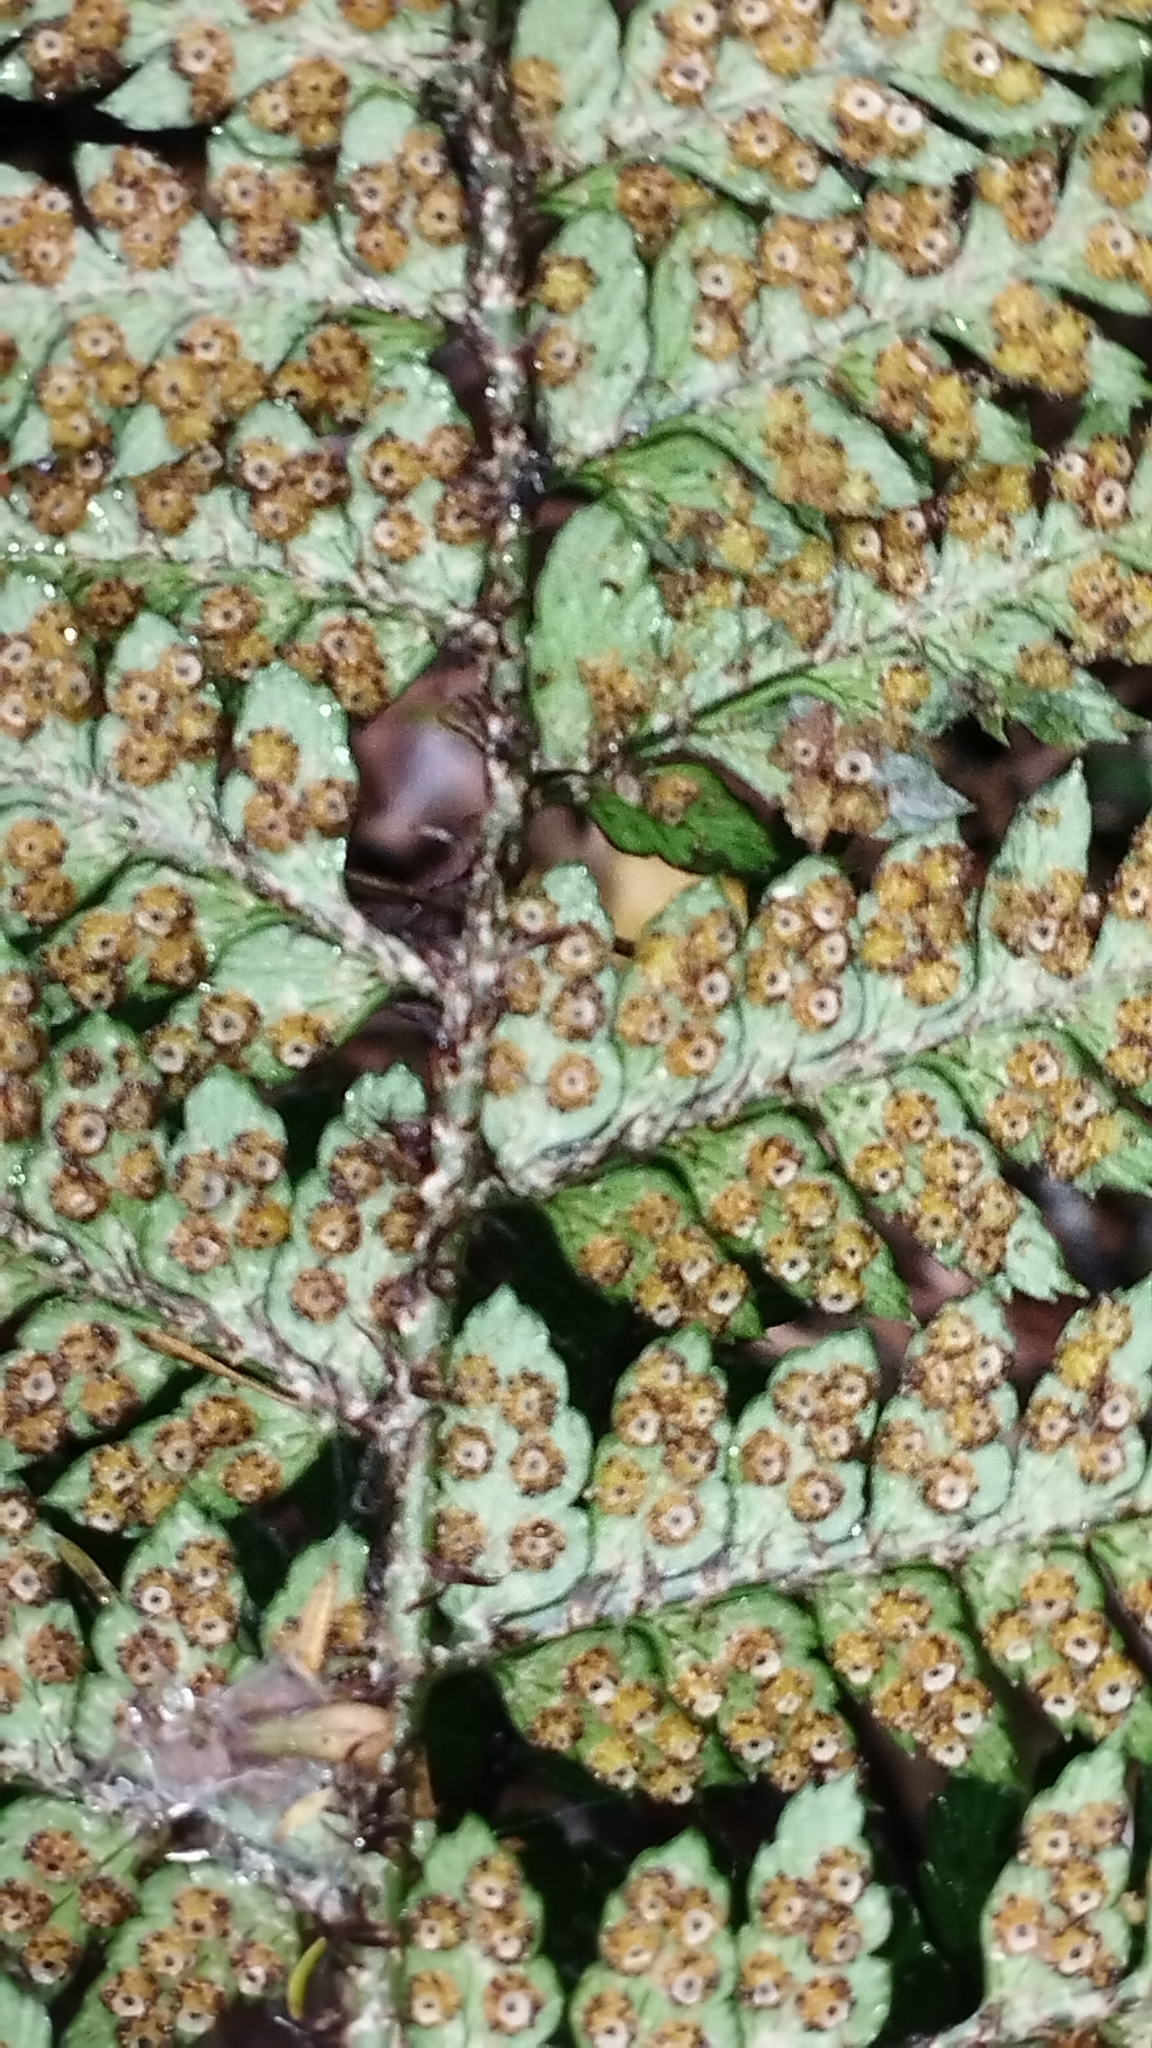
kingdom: Plantae
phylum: Tracheophyta
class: Polypodiopsida
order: Polypodiales
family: Dryopteridaceae
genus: Polystichum
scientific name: Polystichum neozelandicum
